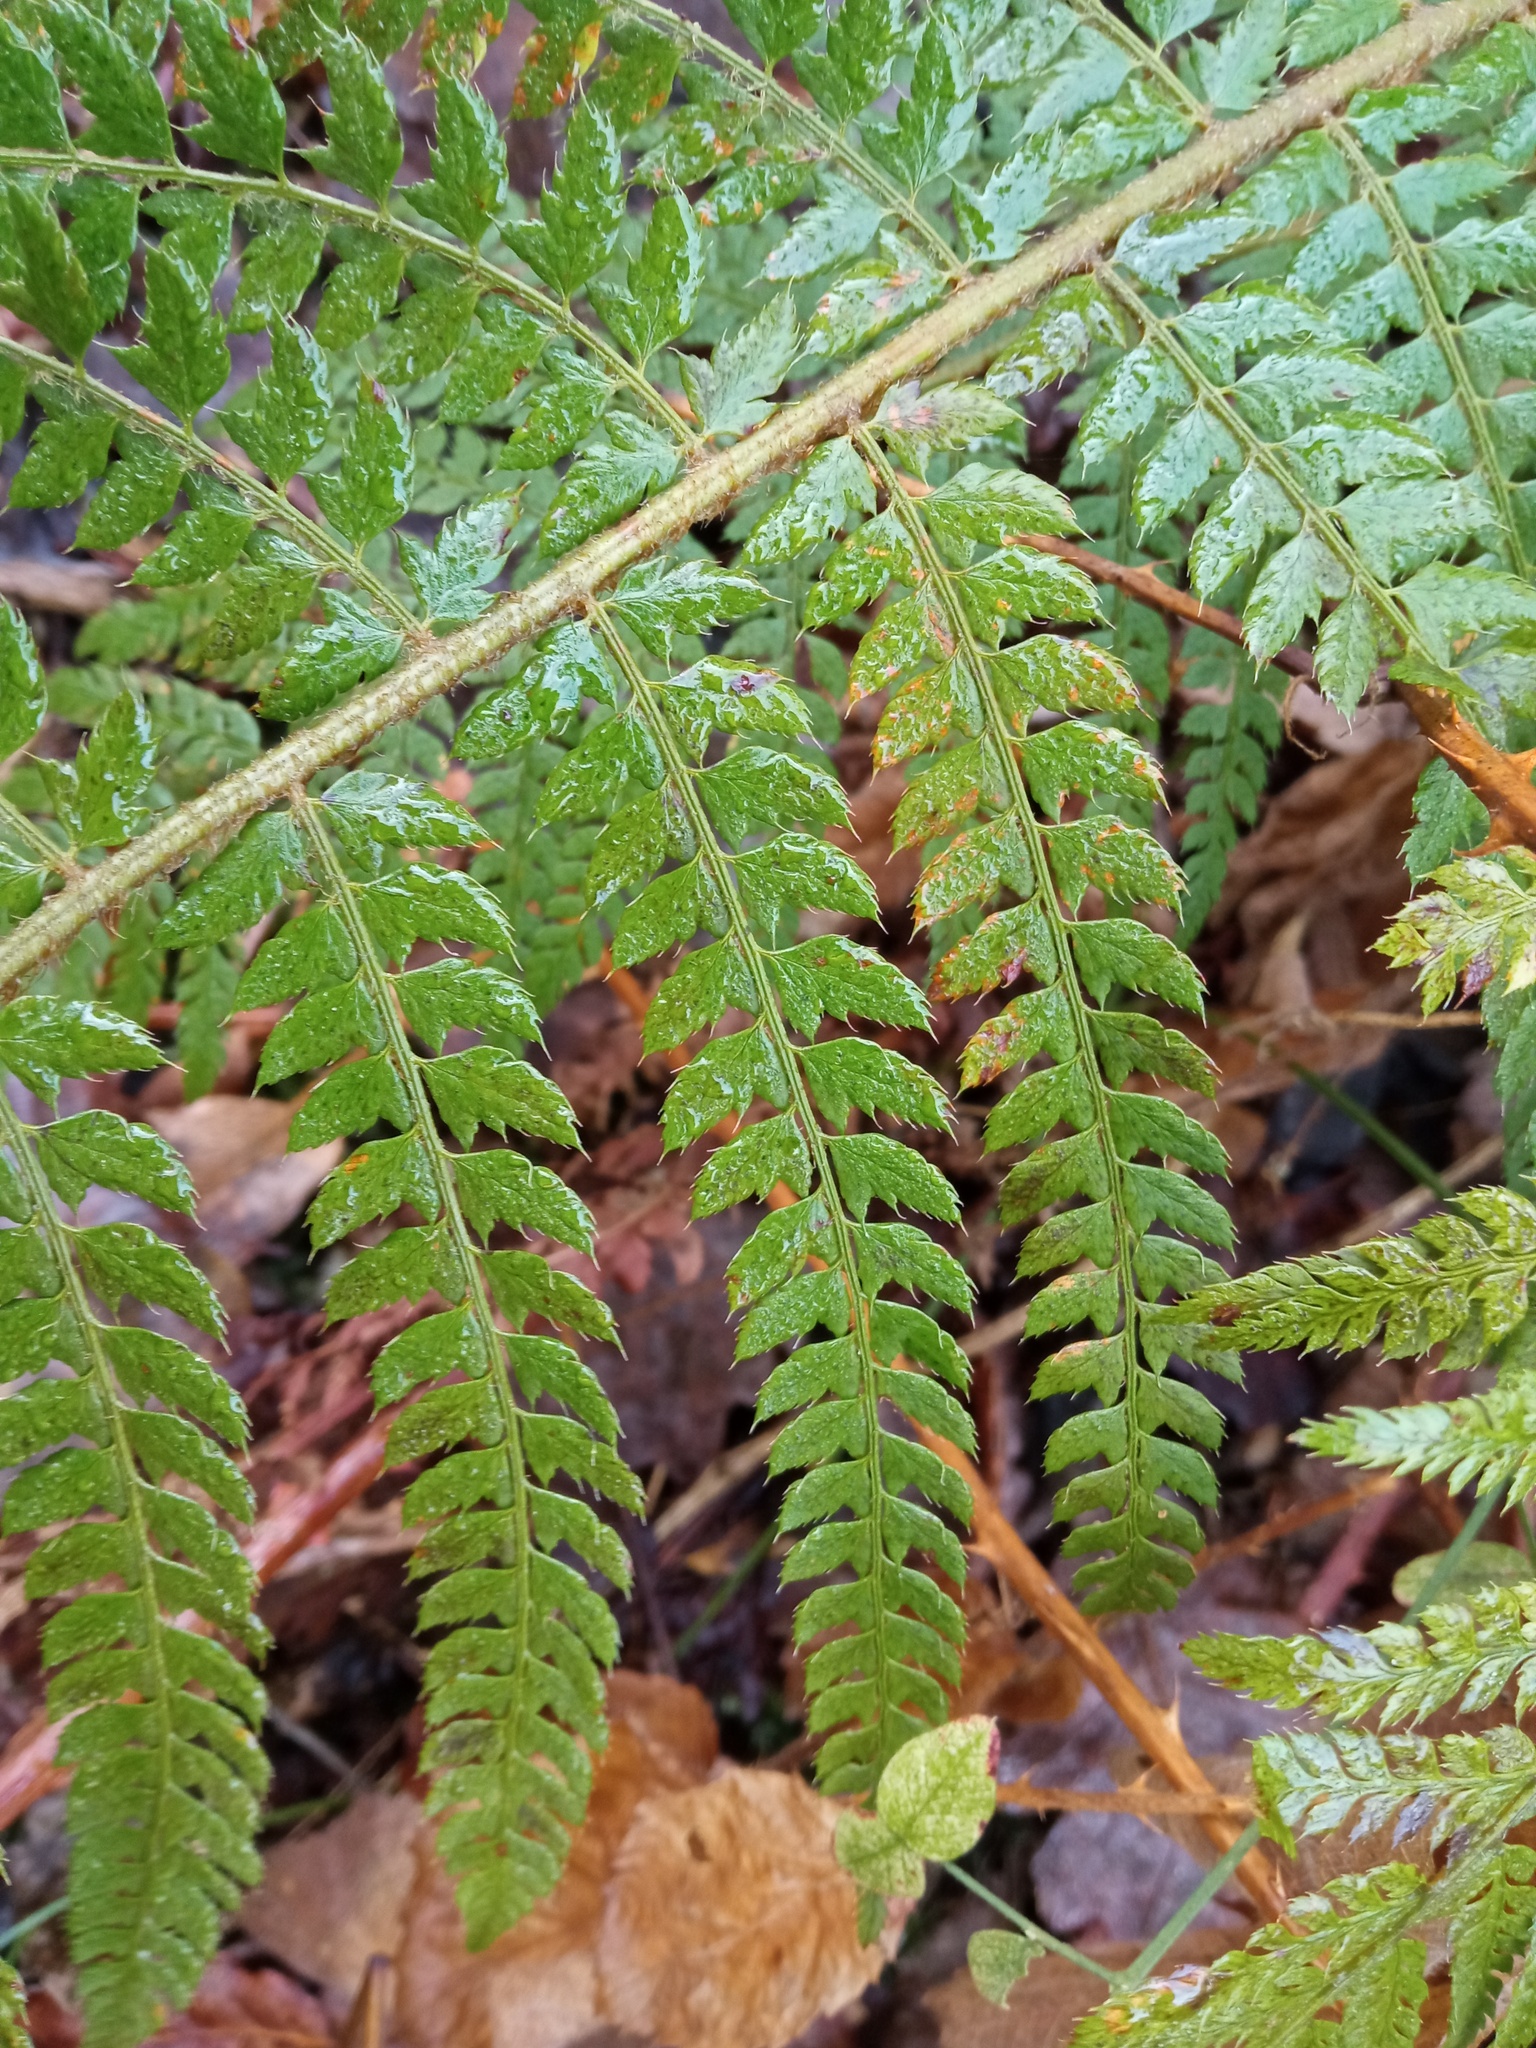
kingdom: Plantae
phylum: Tracheophyta
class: Polypodiopsida
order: Polypodiales
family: Dryopteridaceae
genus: Polystichum
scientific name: Polystichum setiferum
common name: Soft shield-fern
